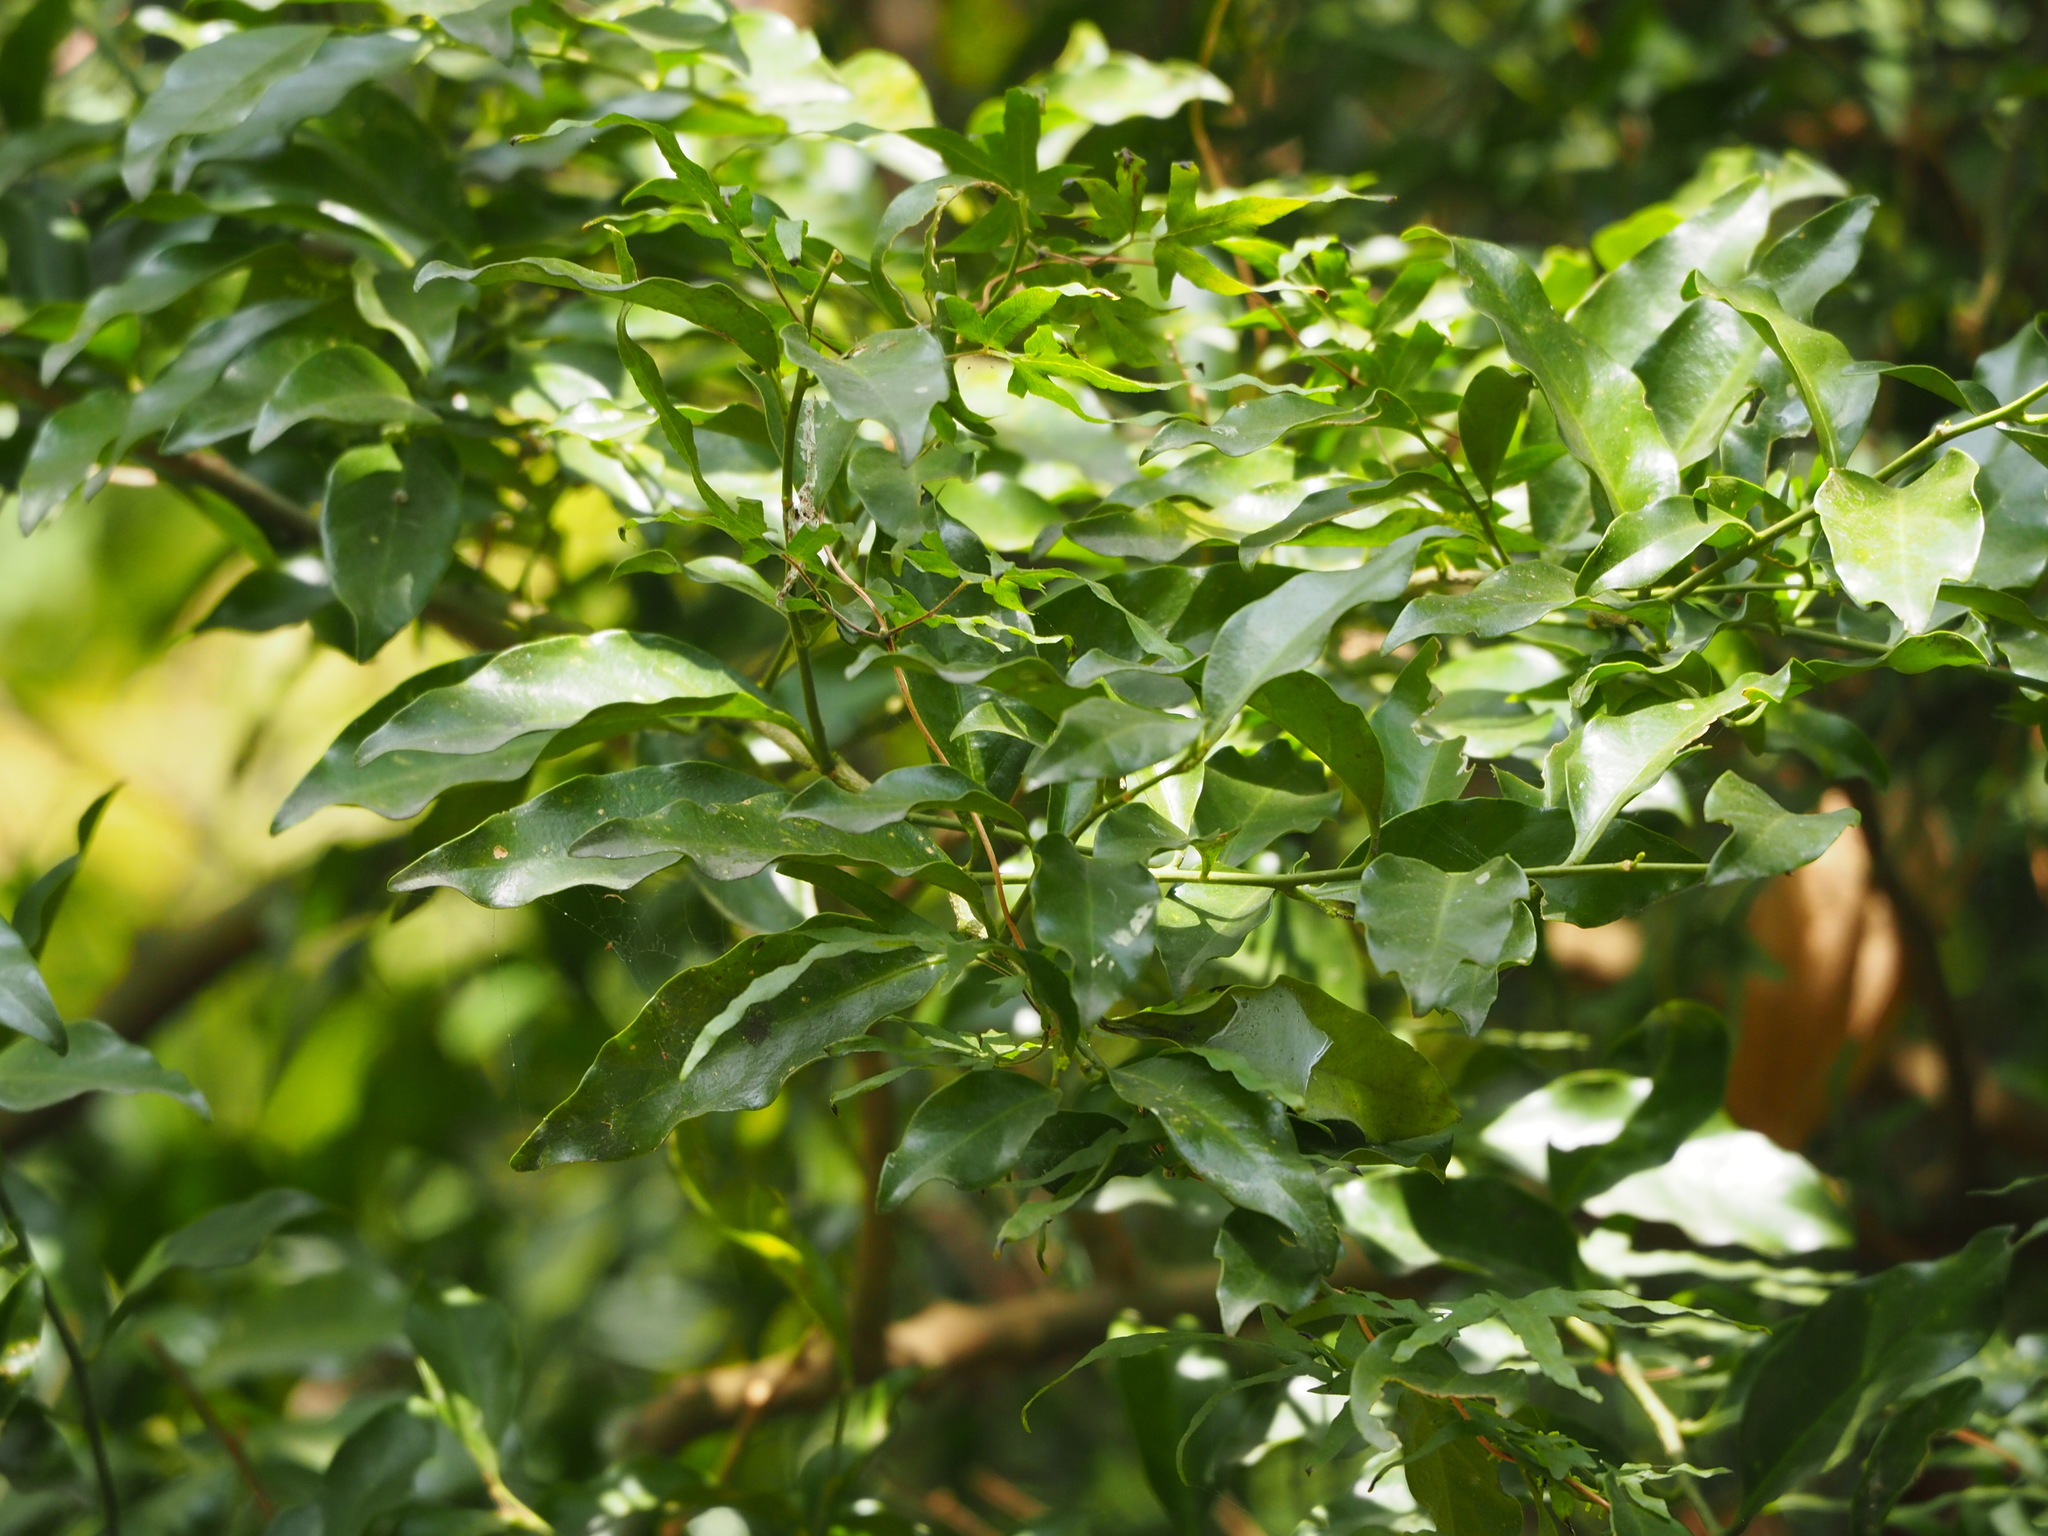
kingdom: Plantae
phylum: Tracheophyta
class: Magnoliopsida
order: Santalales
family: Opiliaceae
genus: Champereia
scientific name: Champereia manillana
